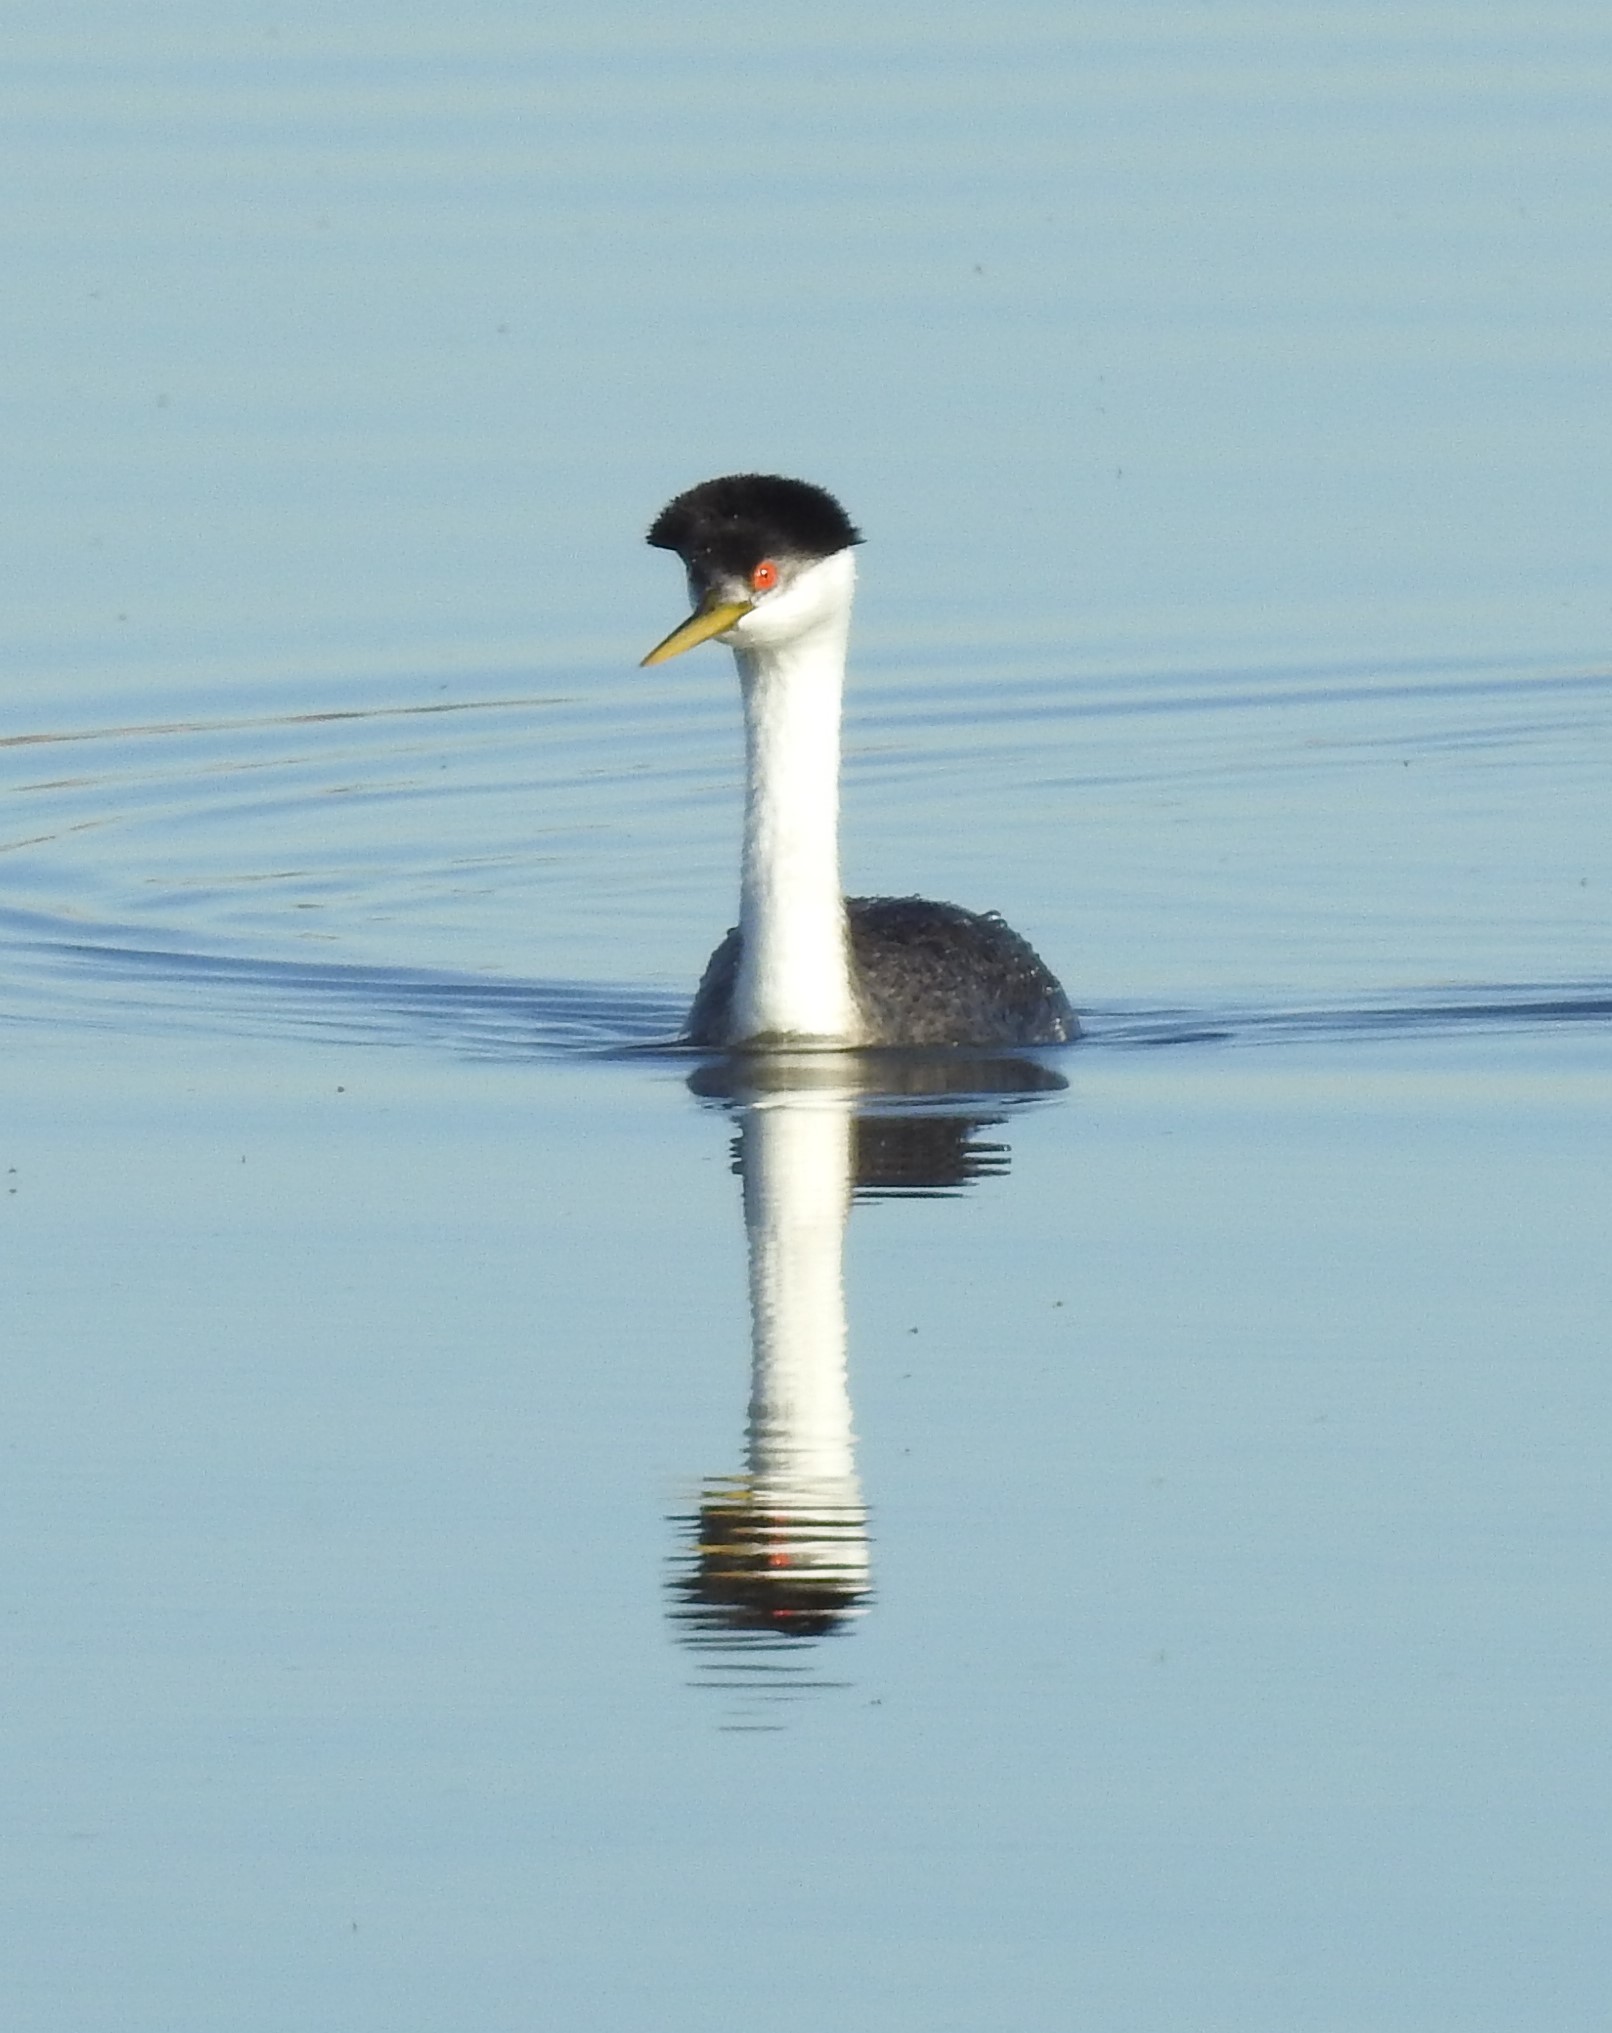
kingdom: Animalia
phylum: Chordata
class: Aves
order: Podicipediformes
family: Podicipedidae
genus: Aechmophorus
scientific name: Aechmophorus occidentalis
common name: Western grebe
